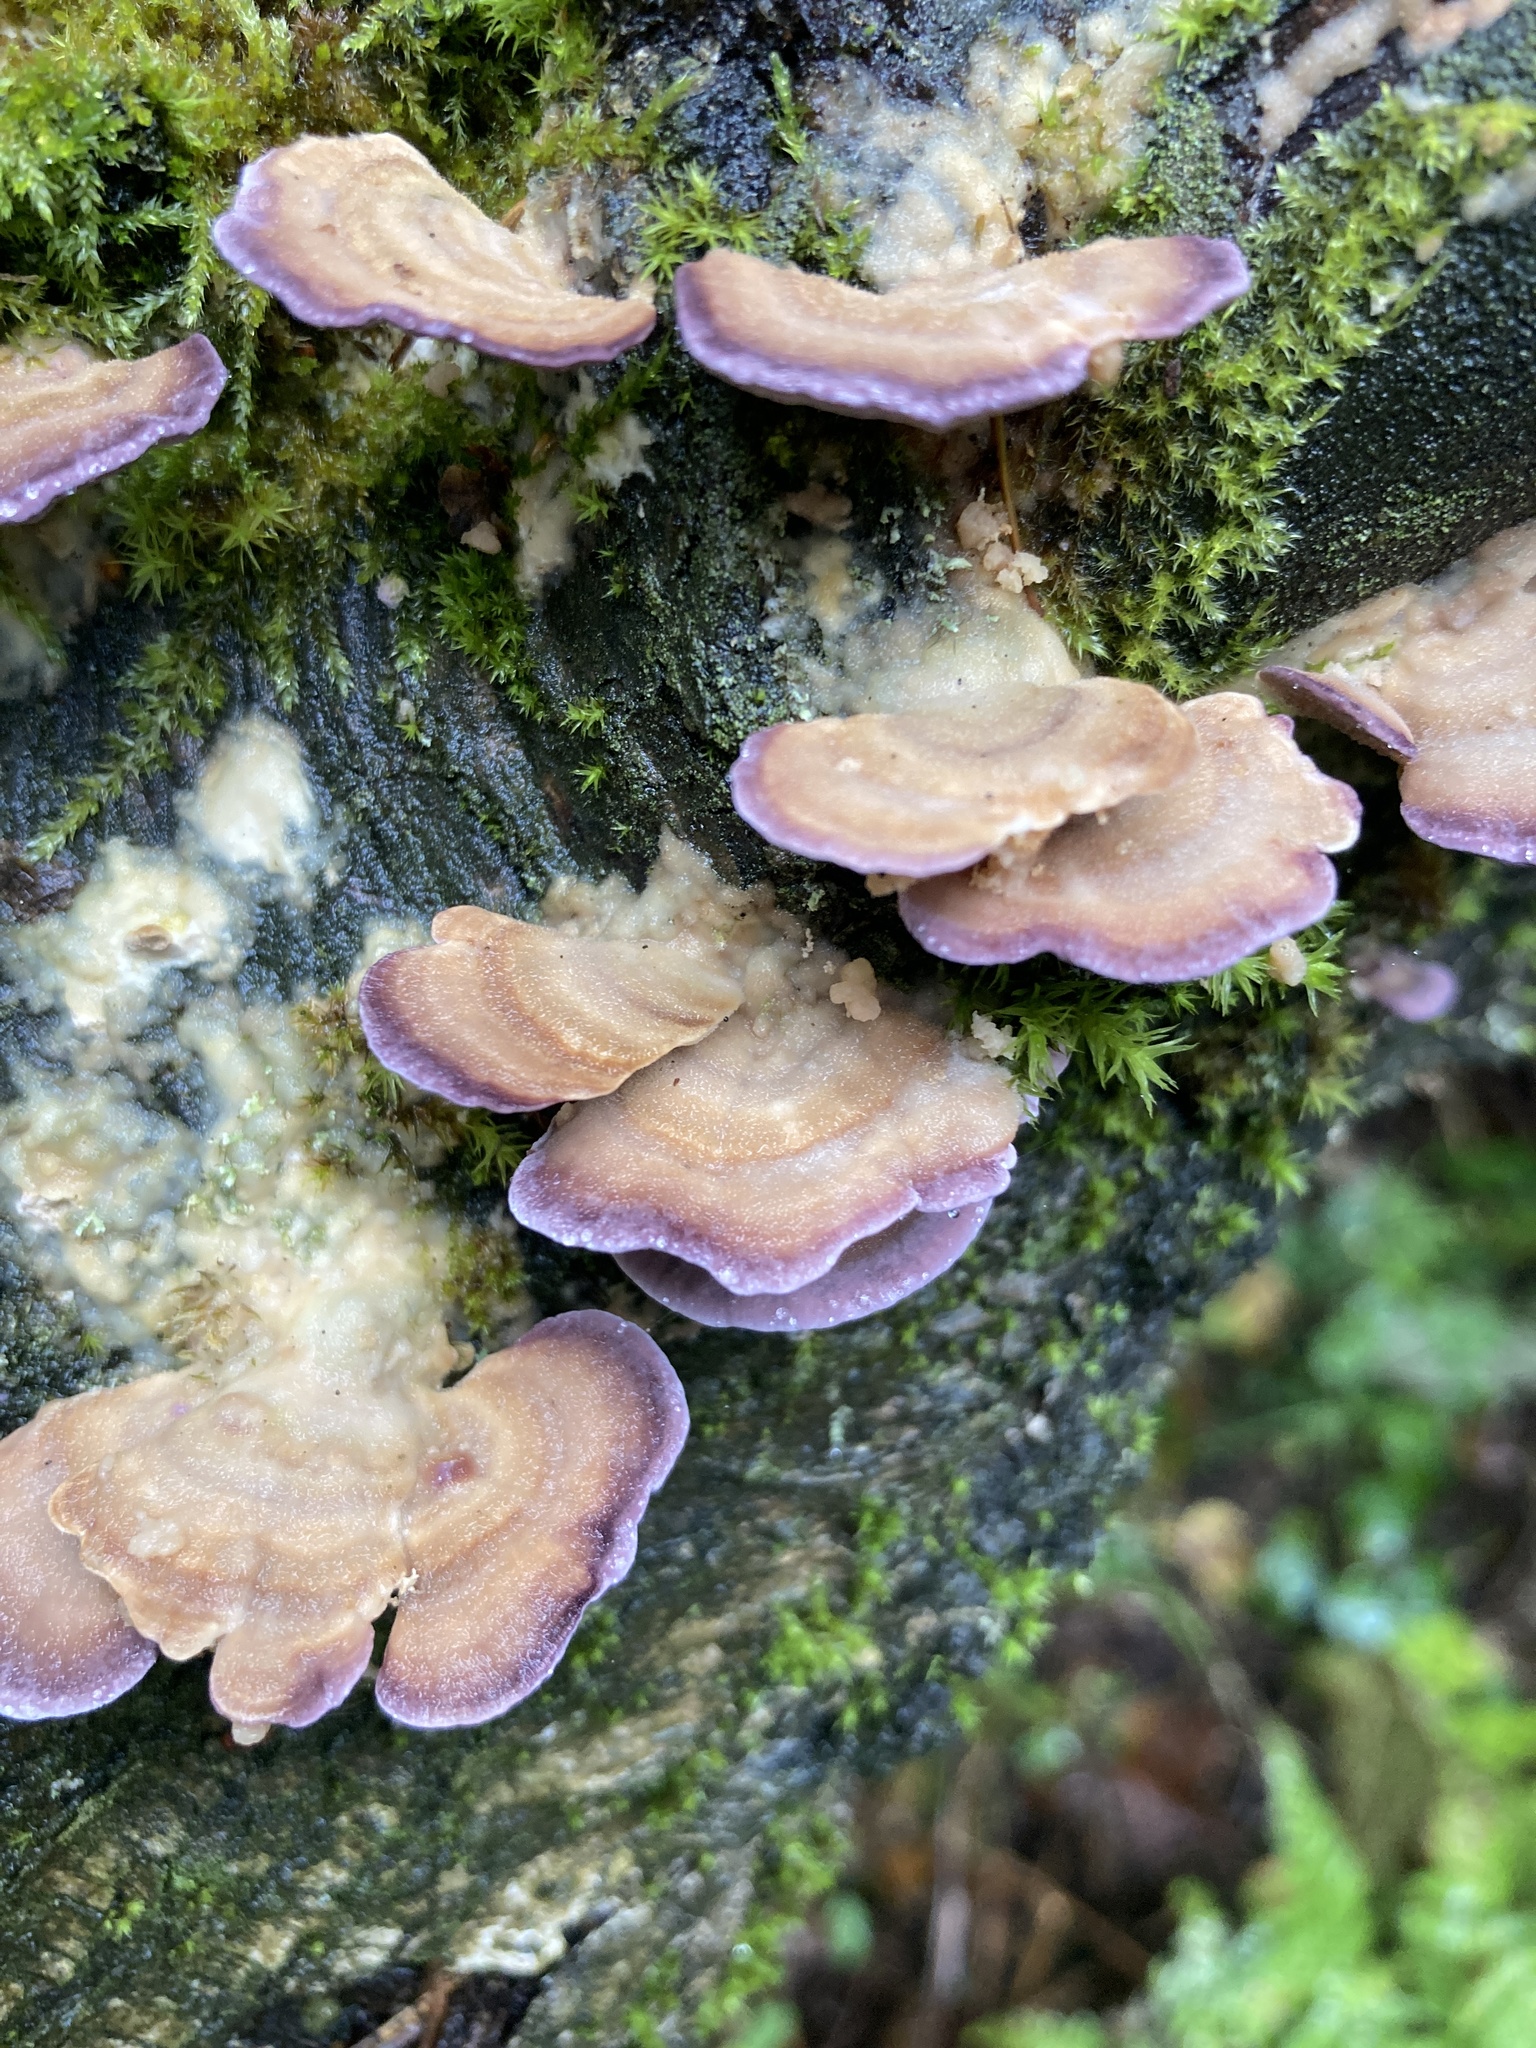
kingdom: Fungi
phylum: Basidiomycota
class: Agaricomycetes
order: Hymenochaetales
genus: Trichaptum
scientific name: Trichaptum biforme
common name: Violet-toothed polypore
